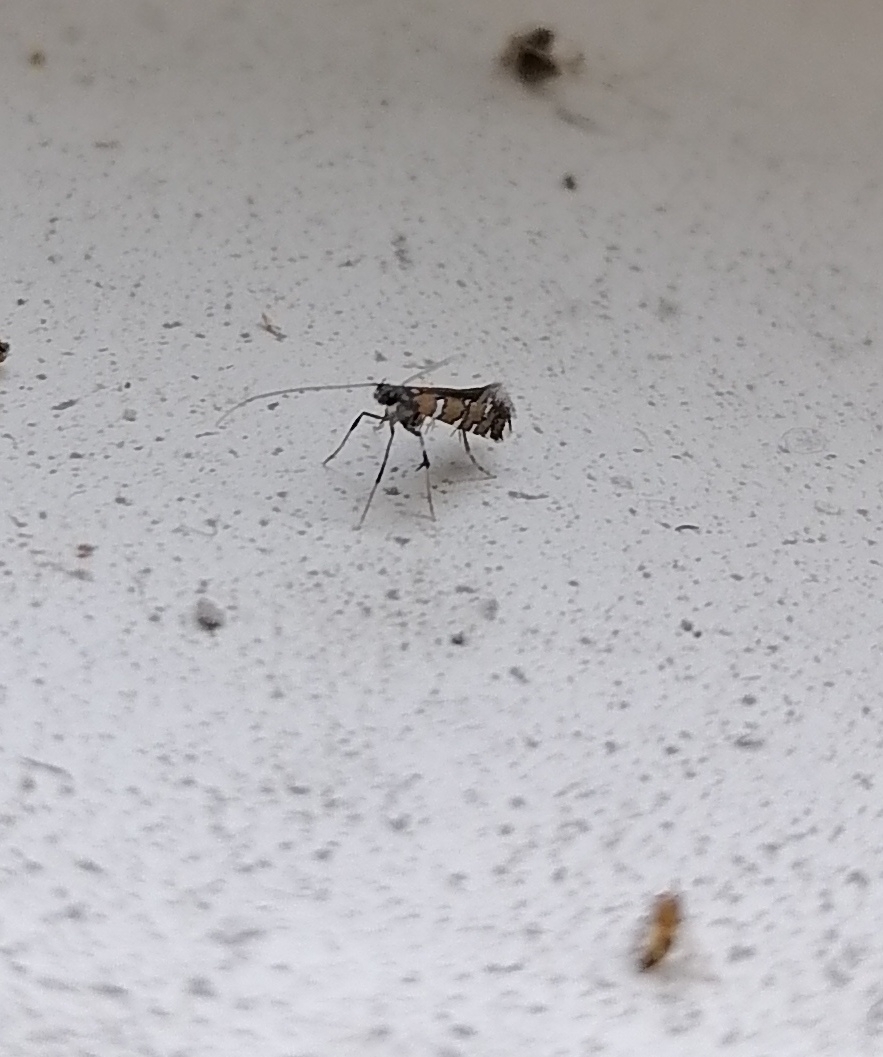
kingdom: Animalia
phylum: Arthropoda
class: Insecta
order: Lepidoptera
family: Gracillariidae
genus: Dialectica
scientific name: Dialectica imperialella
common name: Fen slender
